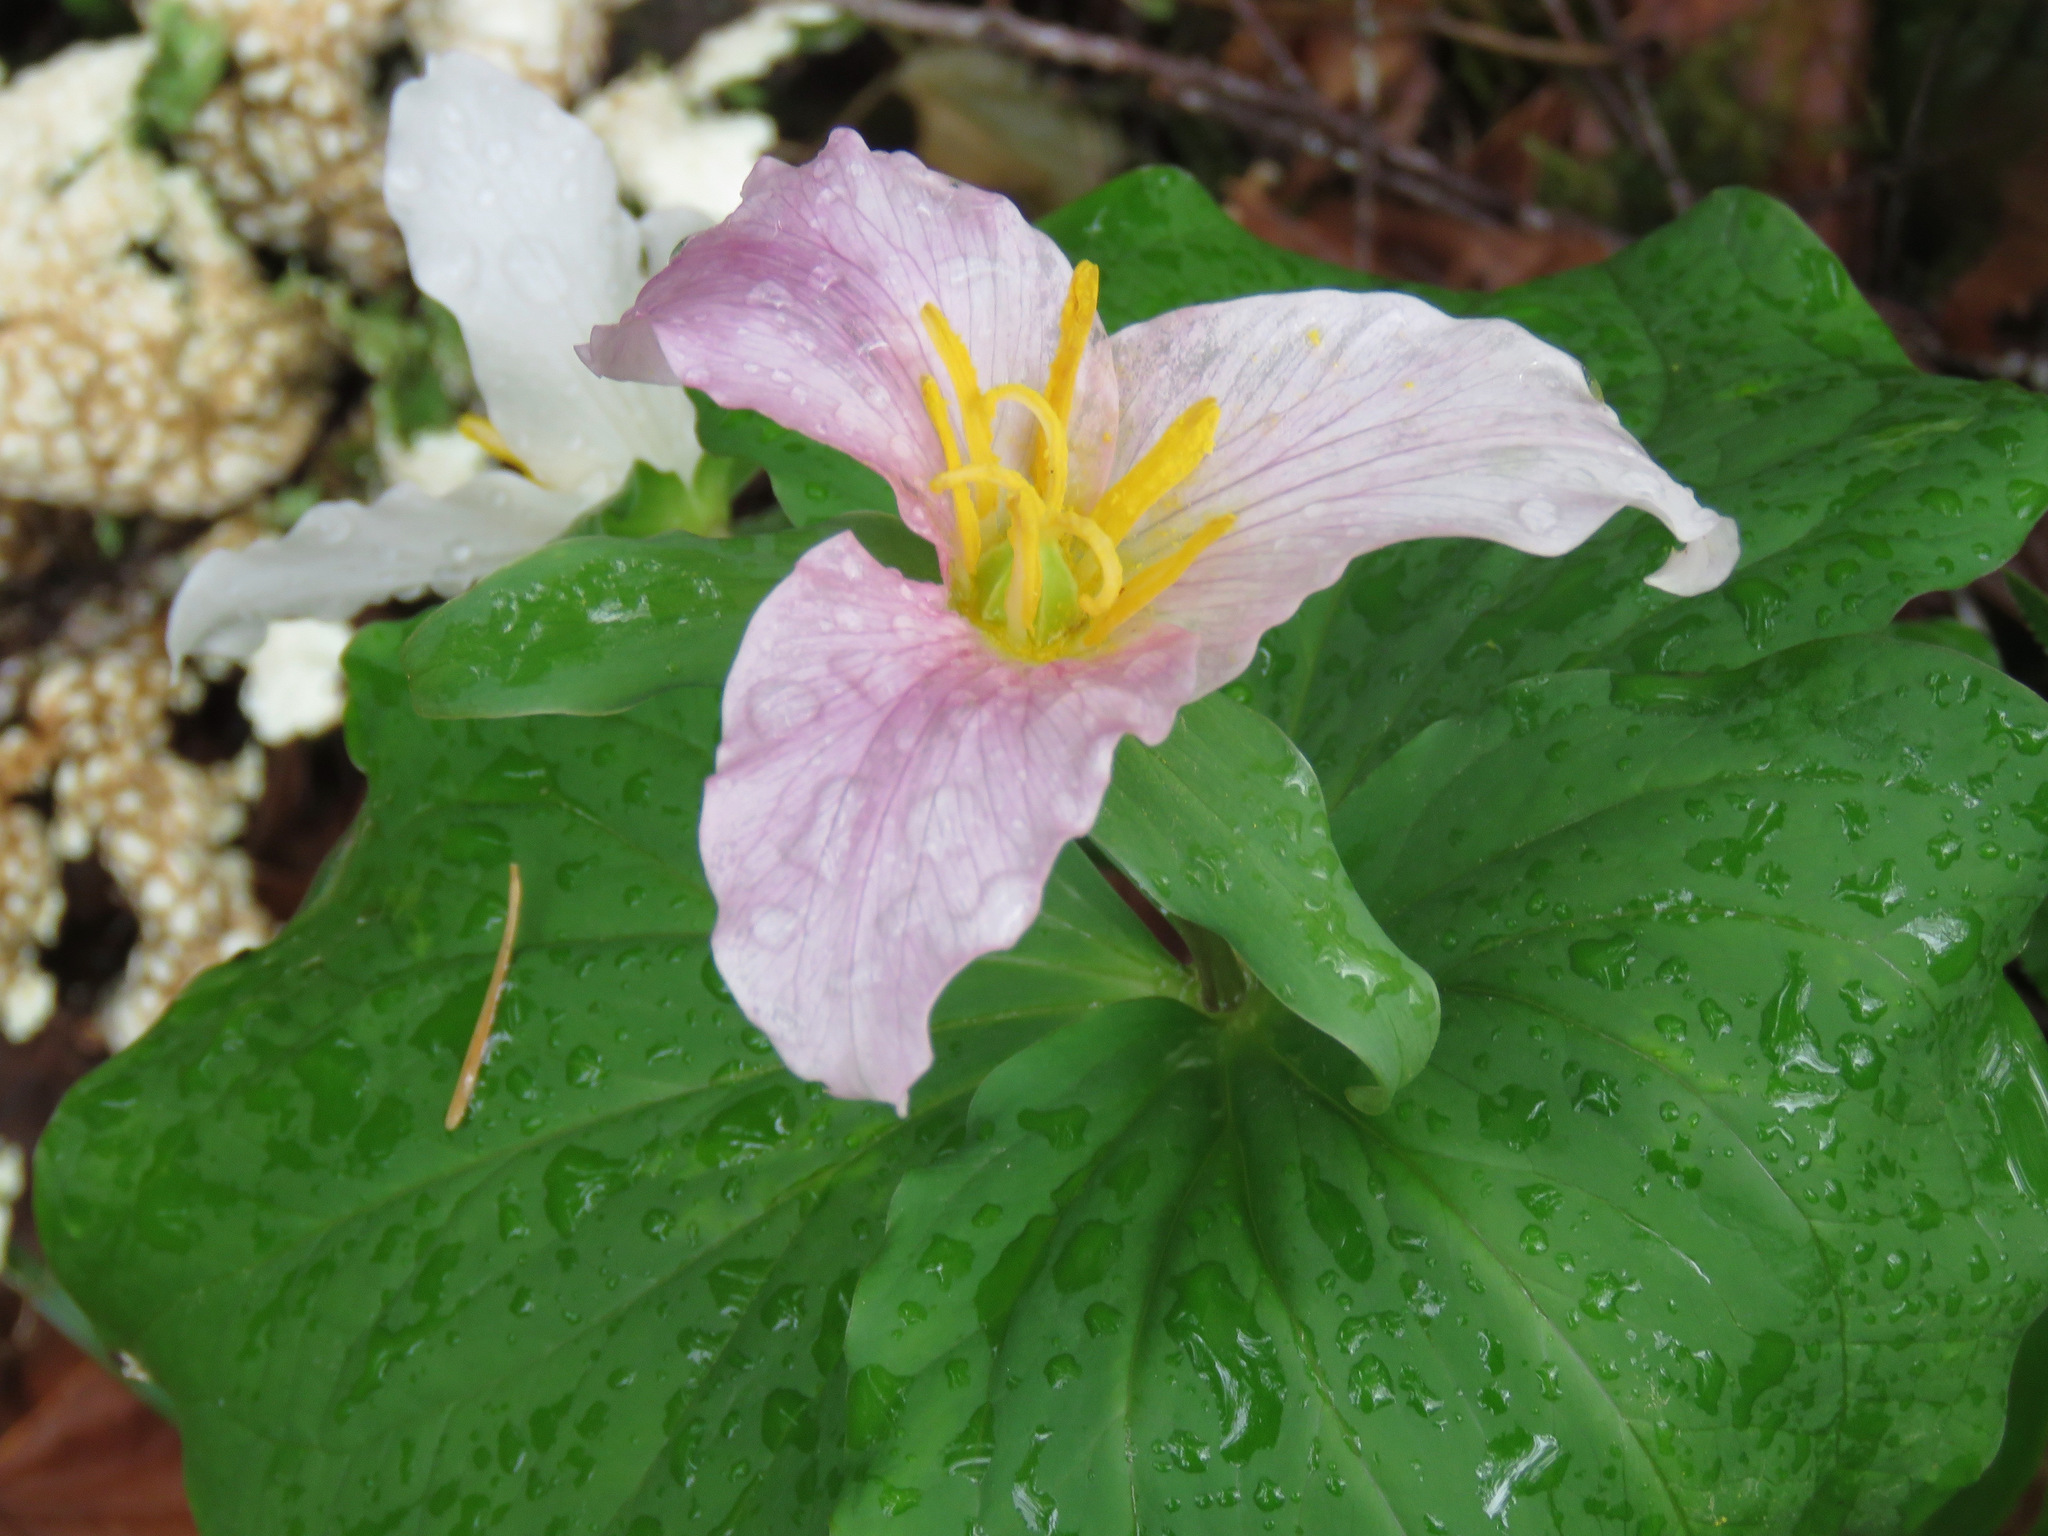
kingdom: Plantae
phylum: Tracheophyta
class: Liliopsida
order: Liliales
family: Melanthiaceae
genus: Trillium
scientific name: Trillium ovatum
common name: Pacific trillium
